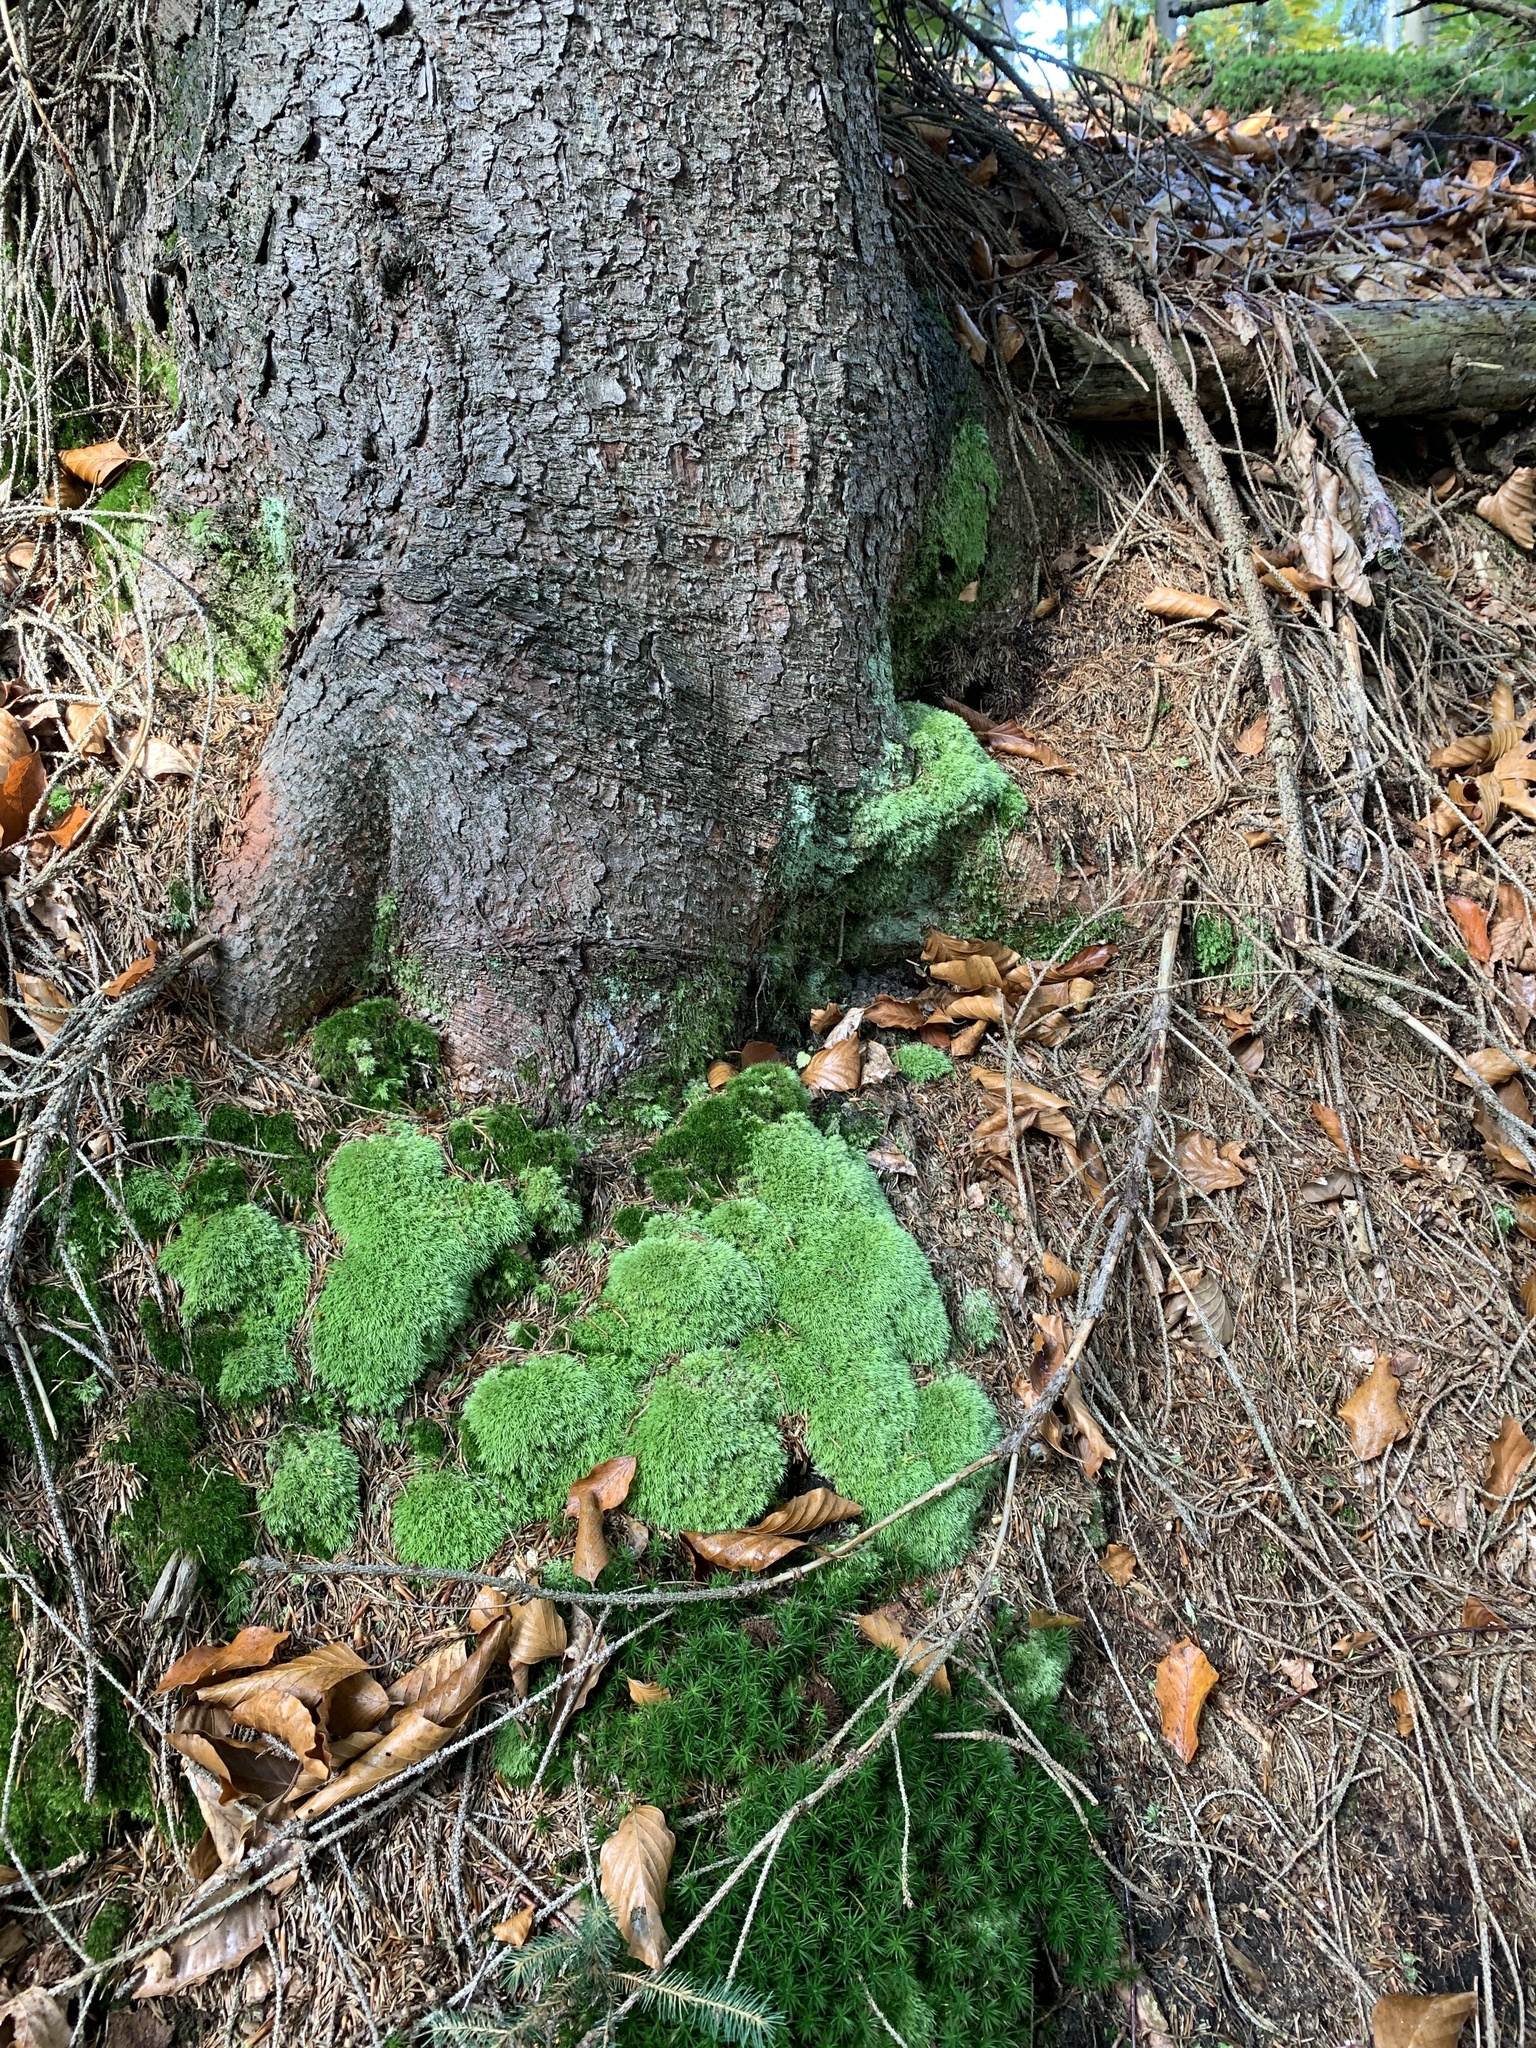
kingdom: Plantae
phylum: Bryophyta
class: Bryopsida
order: Dicranales
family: Leucobryaceae
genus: Leucobryum
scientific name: Leucobryum glaucum
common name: Large white-moss
